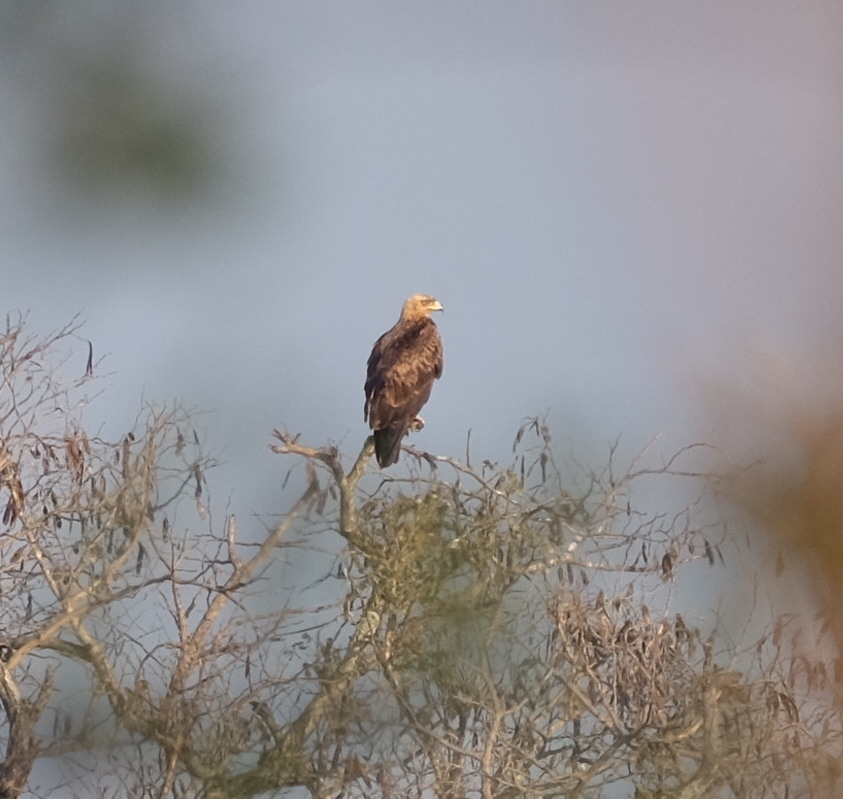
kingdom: Animalia
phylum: Chordata
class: Aves
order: Accipitriformes
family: Accipitridae
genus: Aquila
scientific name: Aquila rapax
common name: Tawny eagle
